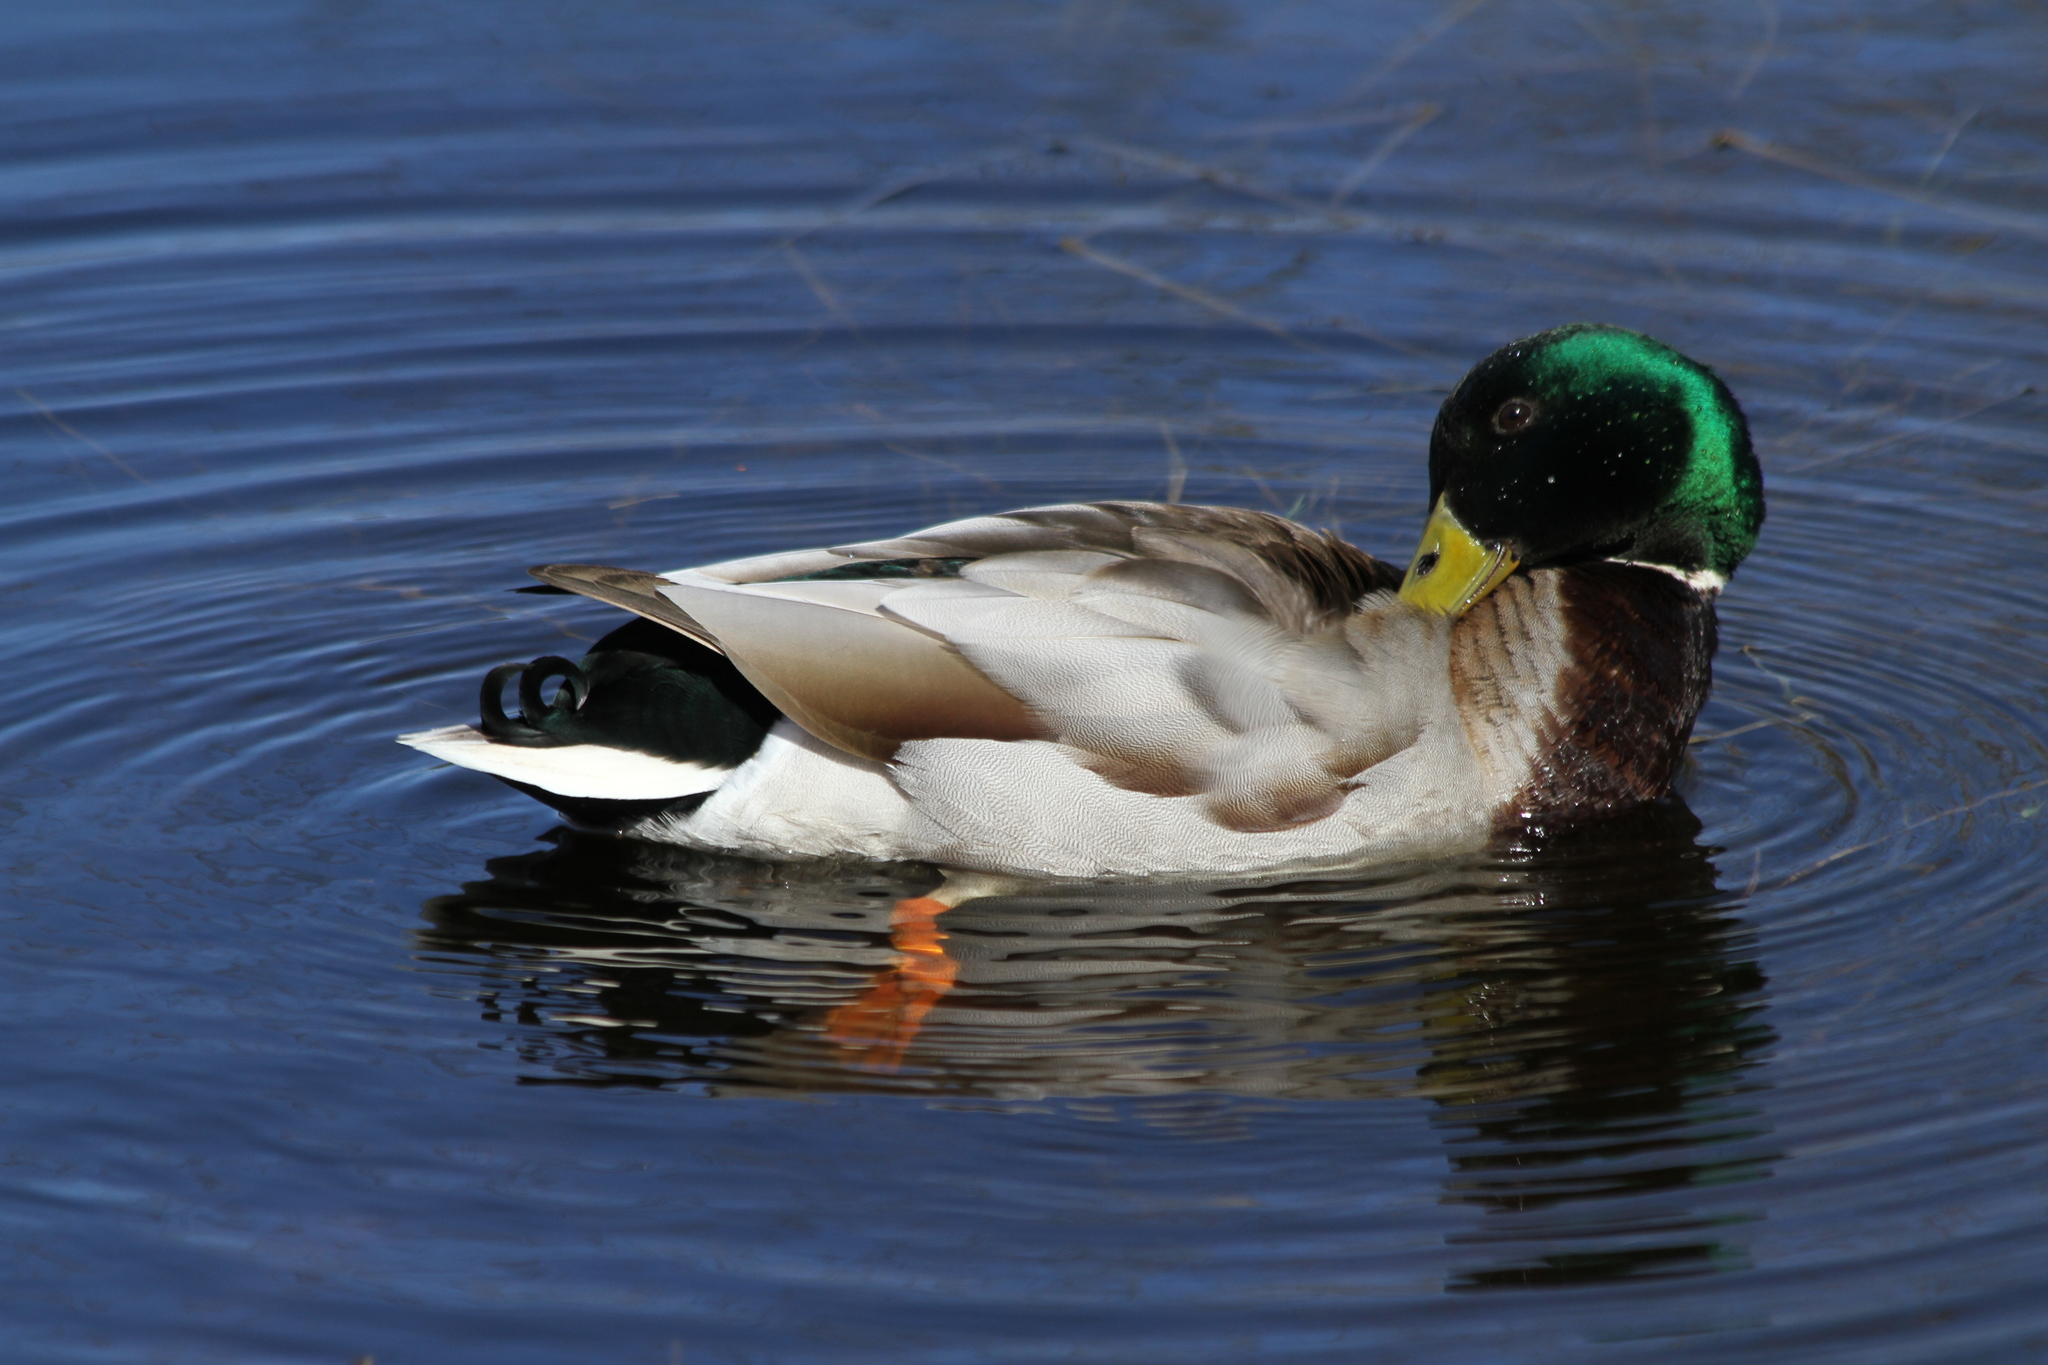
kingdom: Animalia
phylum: Chordata
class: Aves
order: Anseriformes
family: Anatidae
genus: Anas
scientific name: Anas platyrhynchos
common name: Mallard
